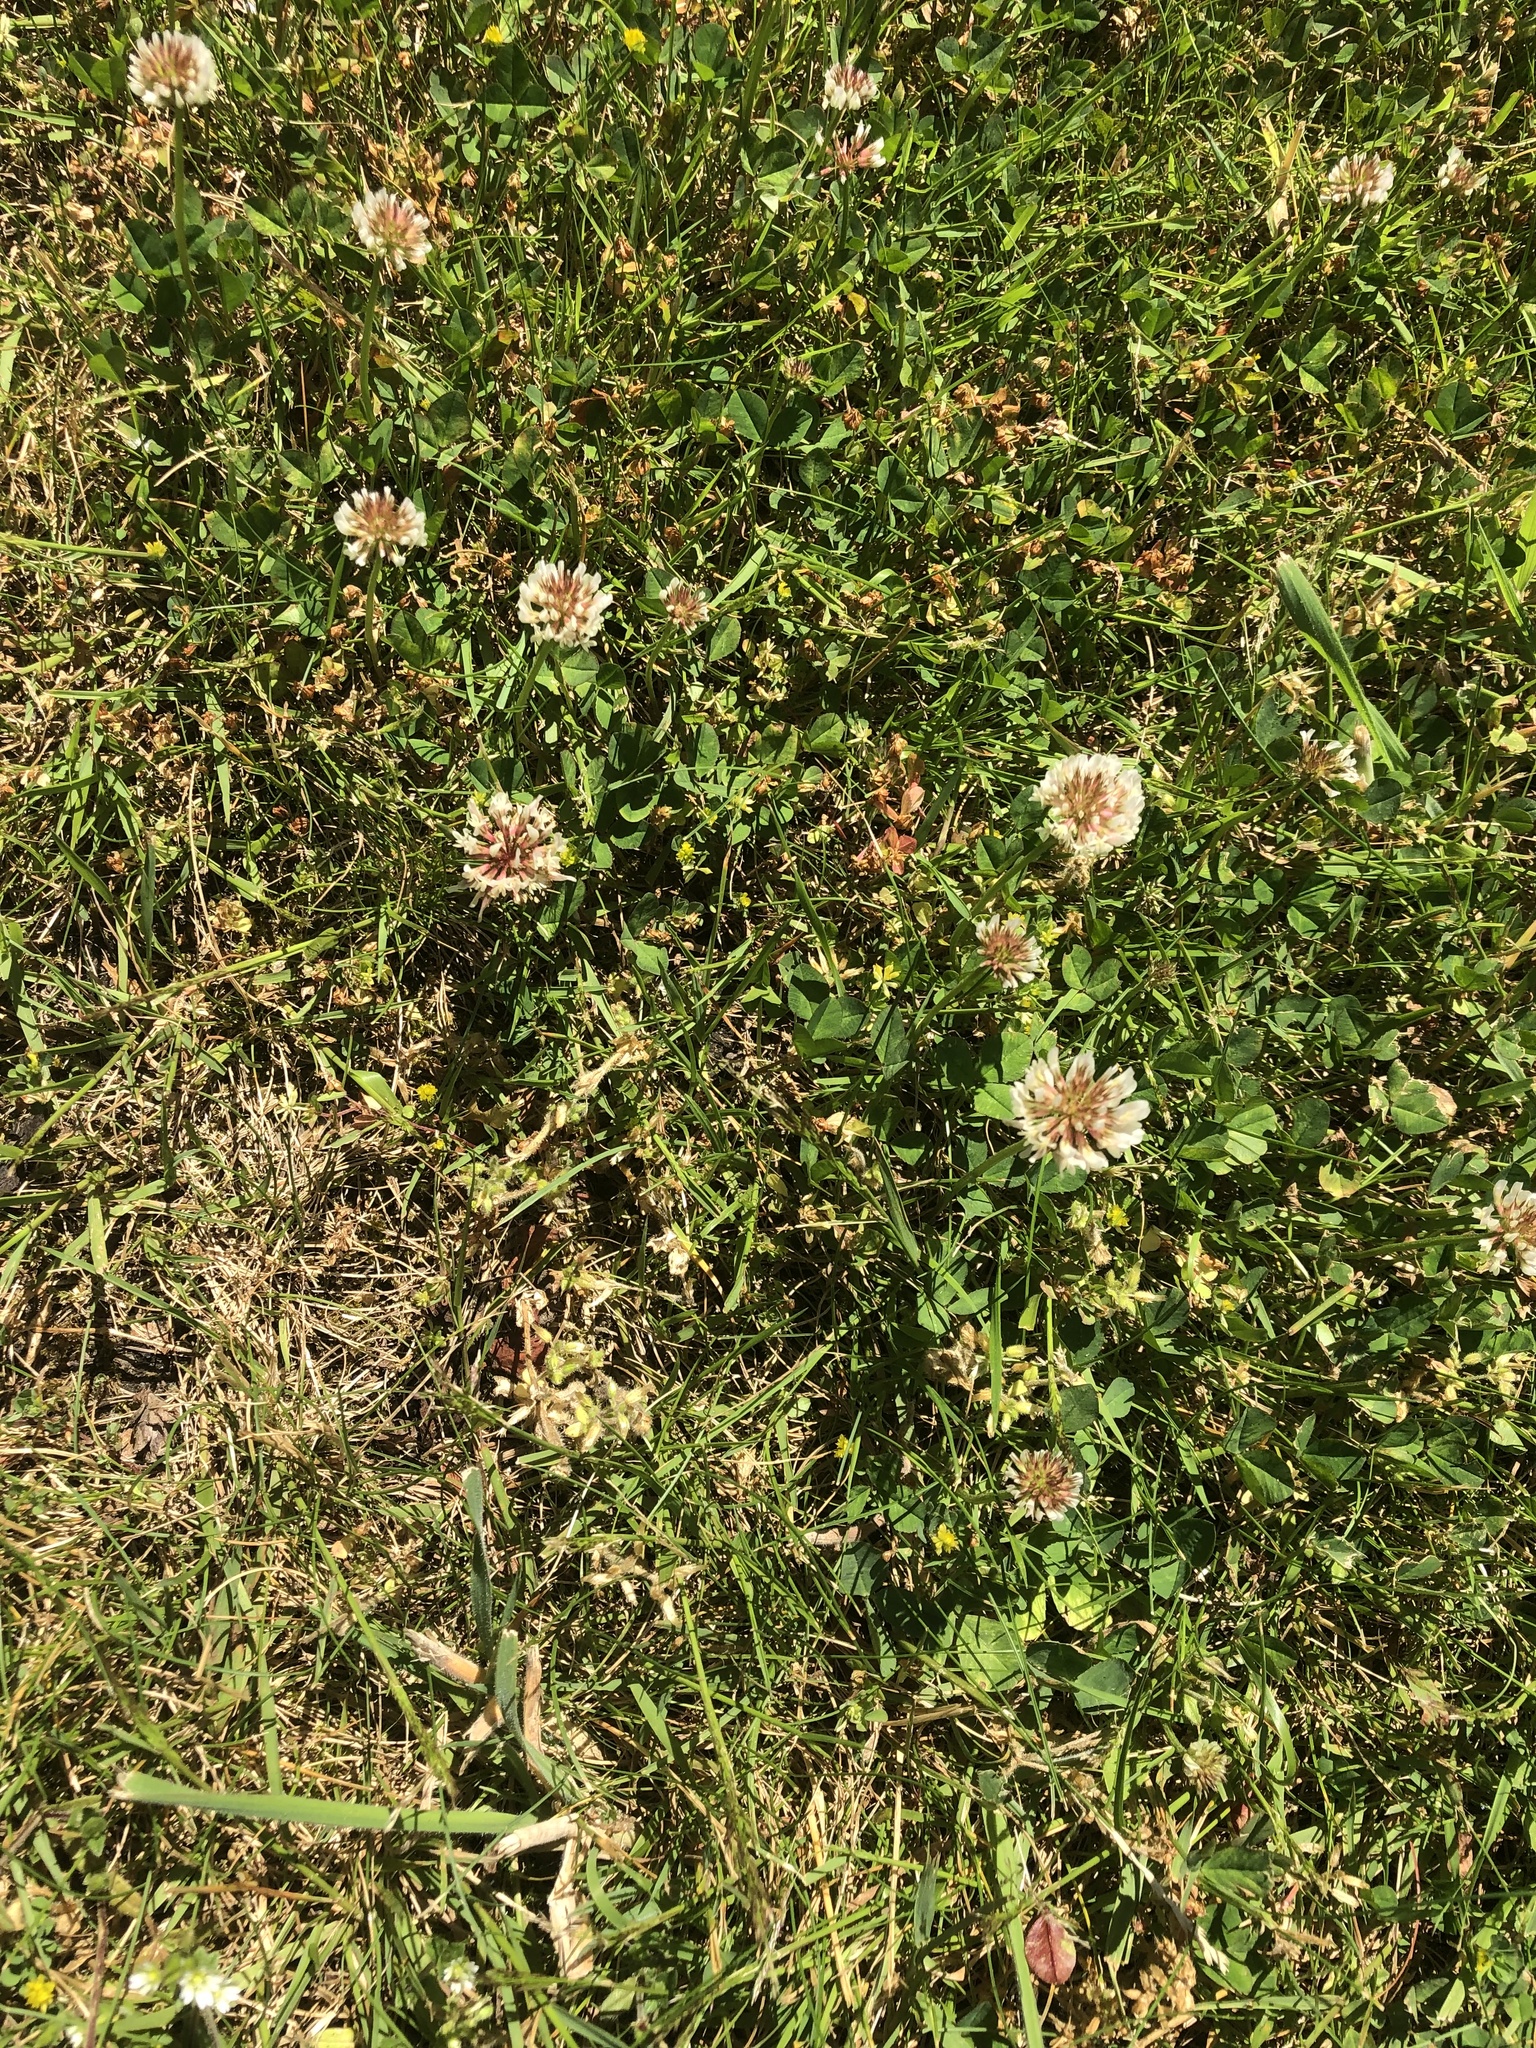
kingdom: Plantae
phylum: Tracheophyta
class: Magnoliopsida
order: Fabales
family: Fabaceae
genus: Trifolium
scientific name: Trifolium repens
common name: White clover
